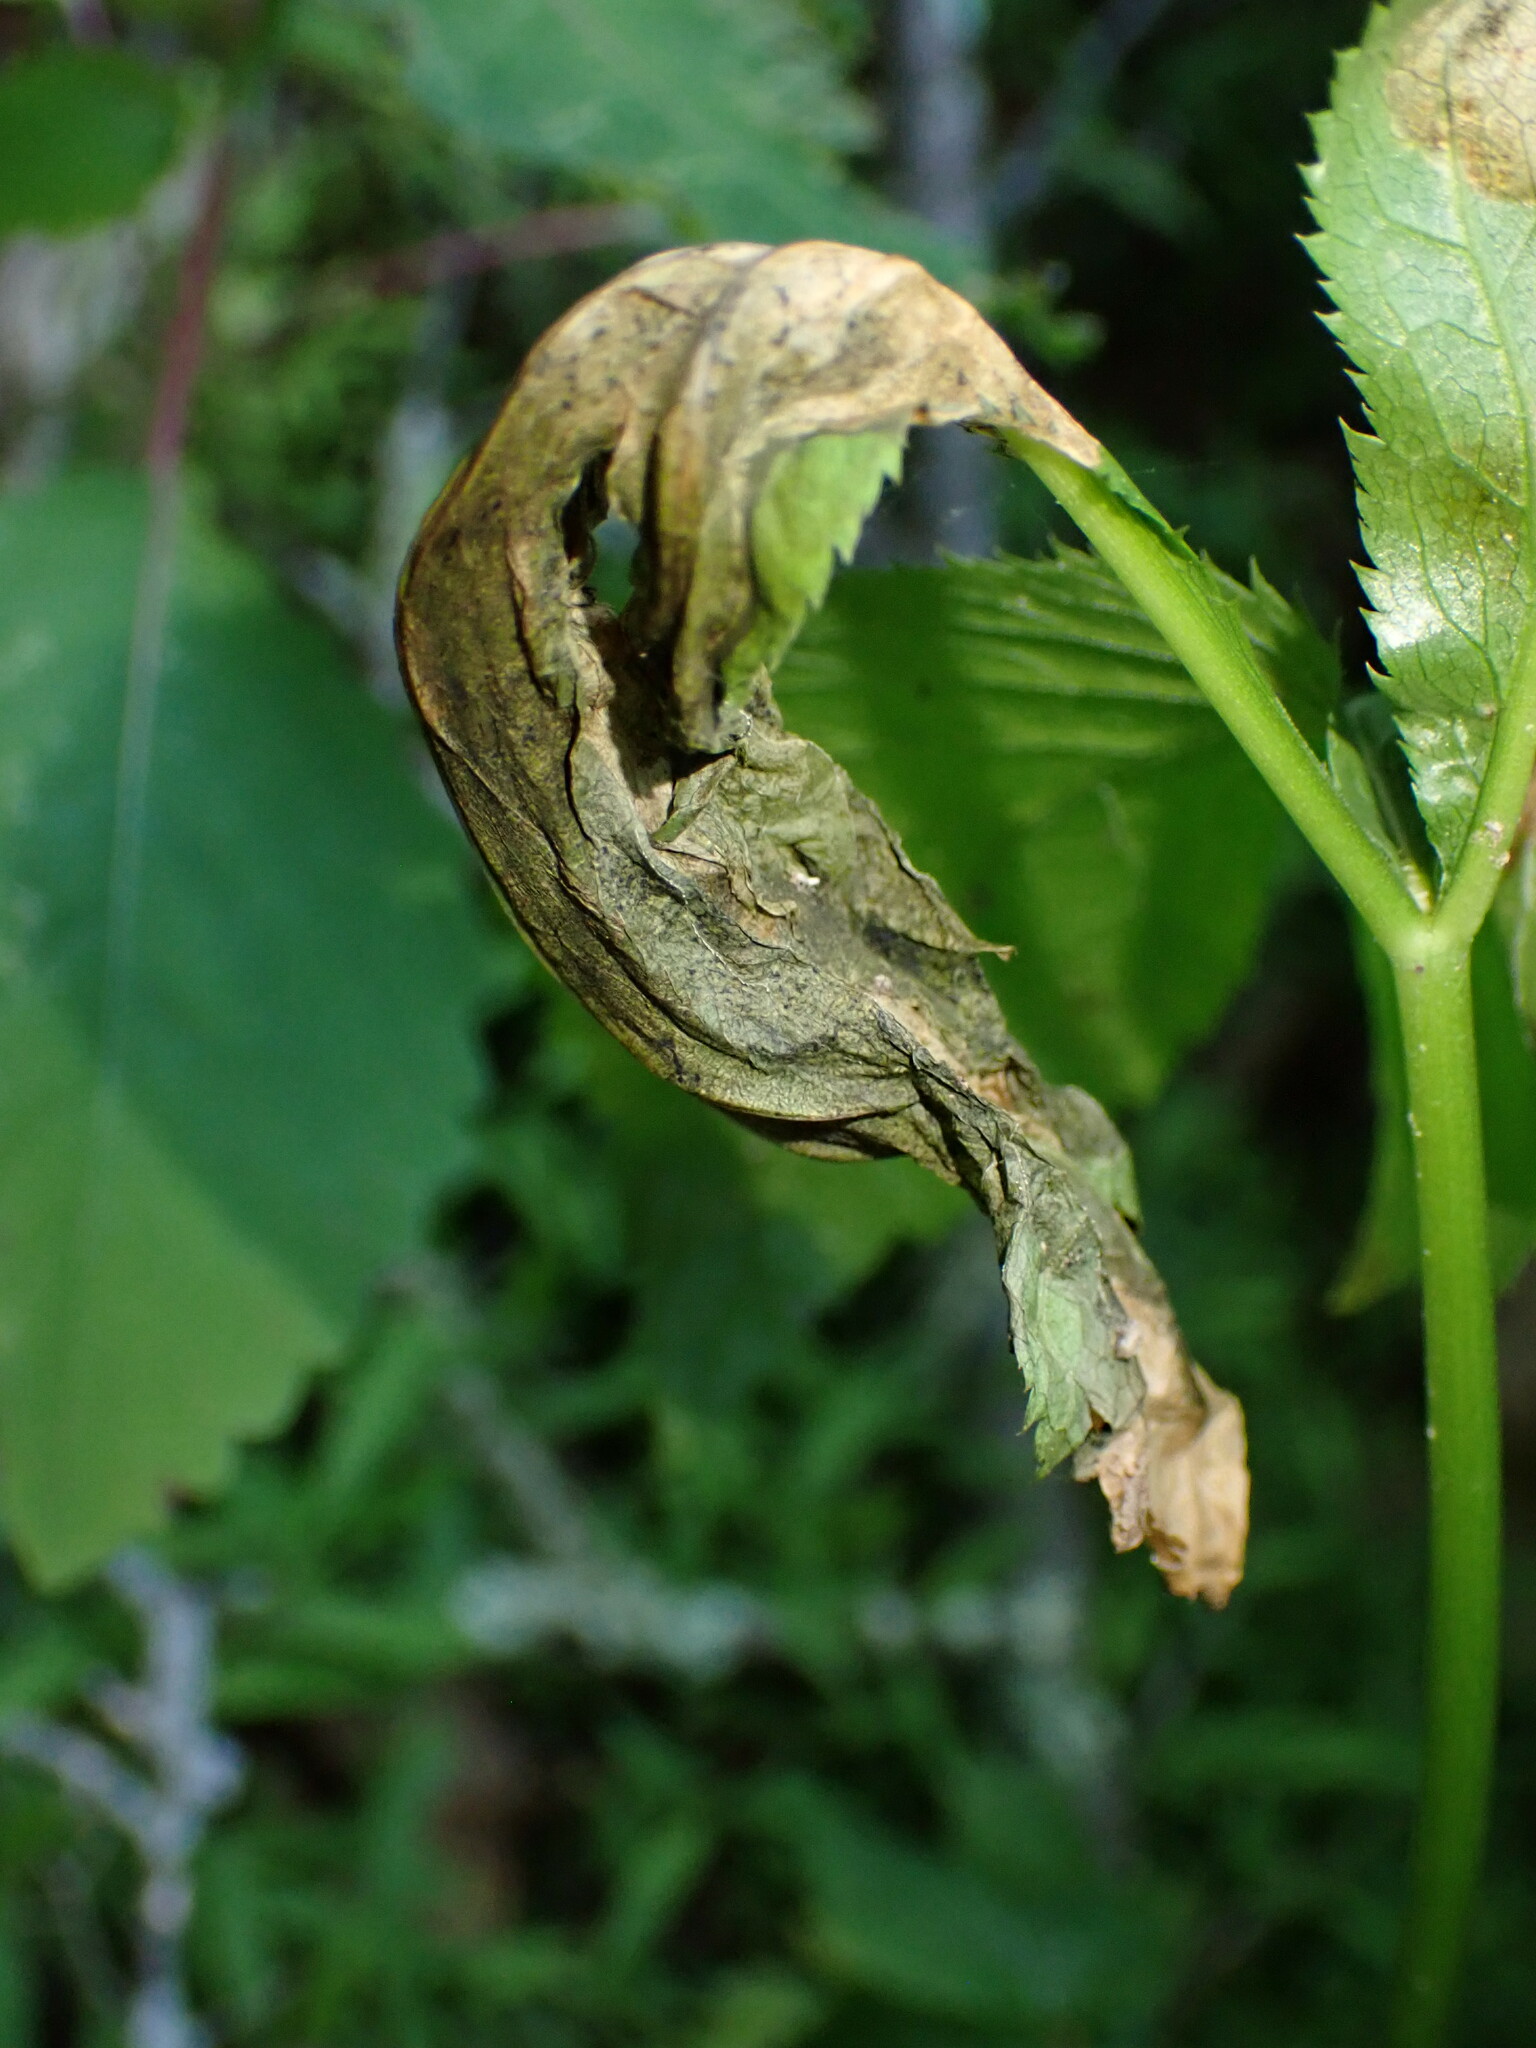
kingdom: Animalia
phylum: Arthropoda
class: Insecta
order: Diptera
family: Tephritidae
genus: Euleia
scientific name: Euleia fratria
